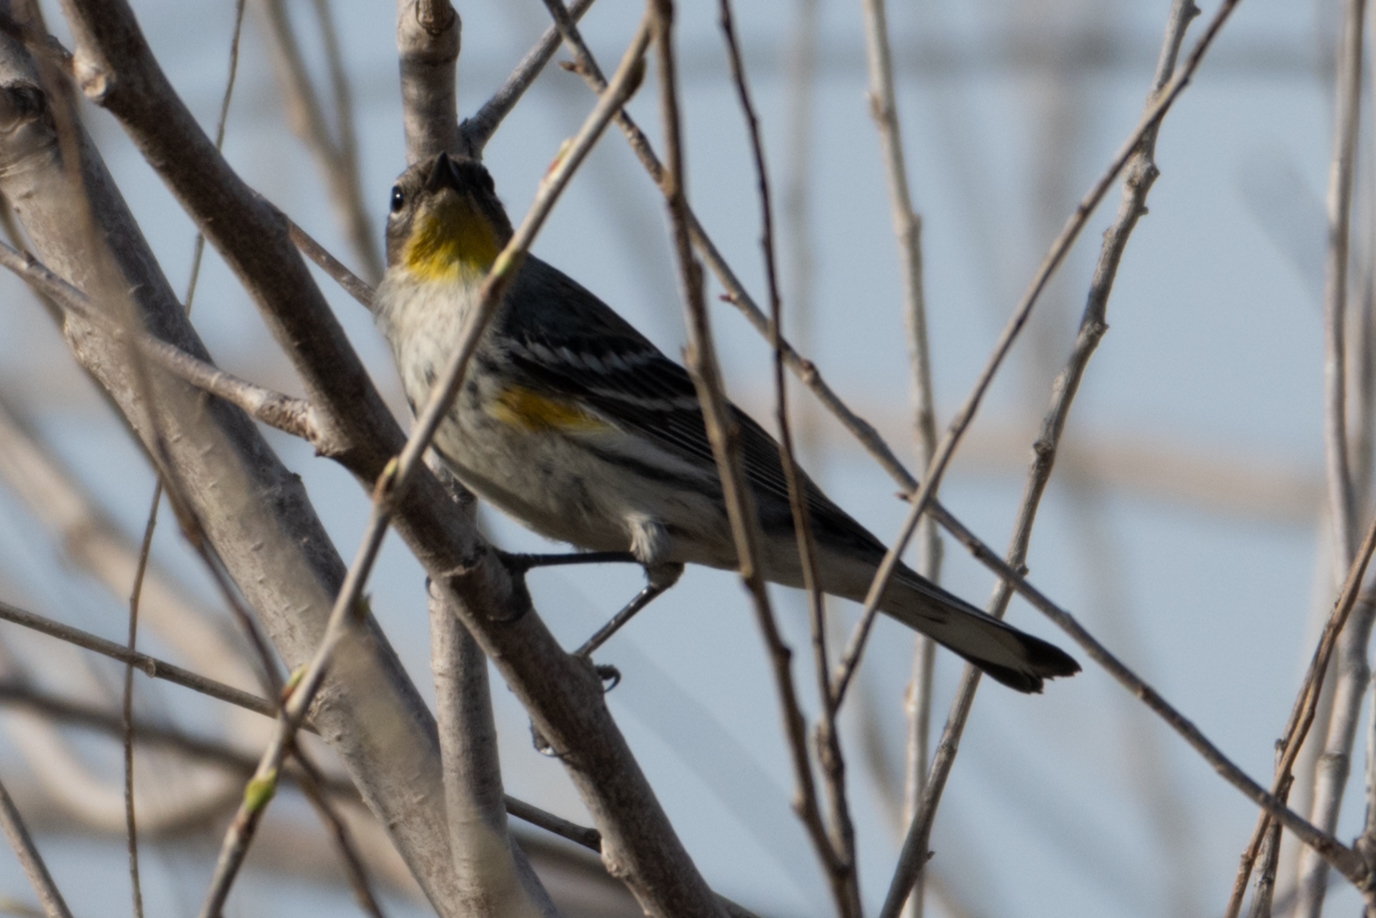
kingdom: Animalia
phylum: Chordata
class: Aves
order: Passeriformes
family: Parulidae
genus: Setophaga
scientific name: Setophaga coronata
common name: Myrtle warbler
